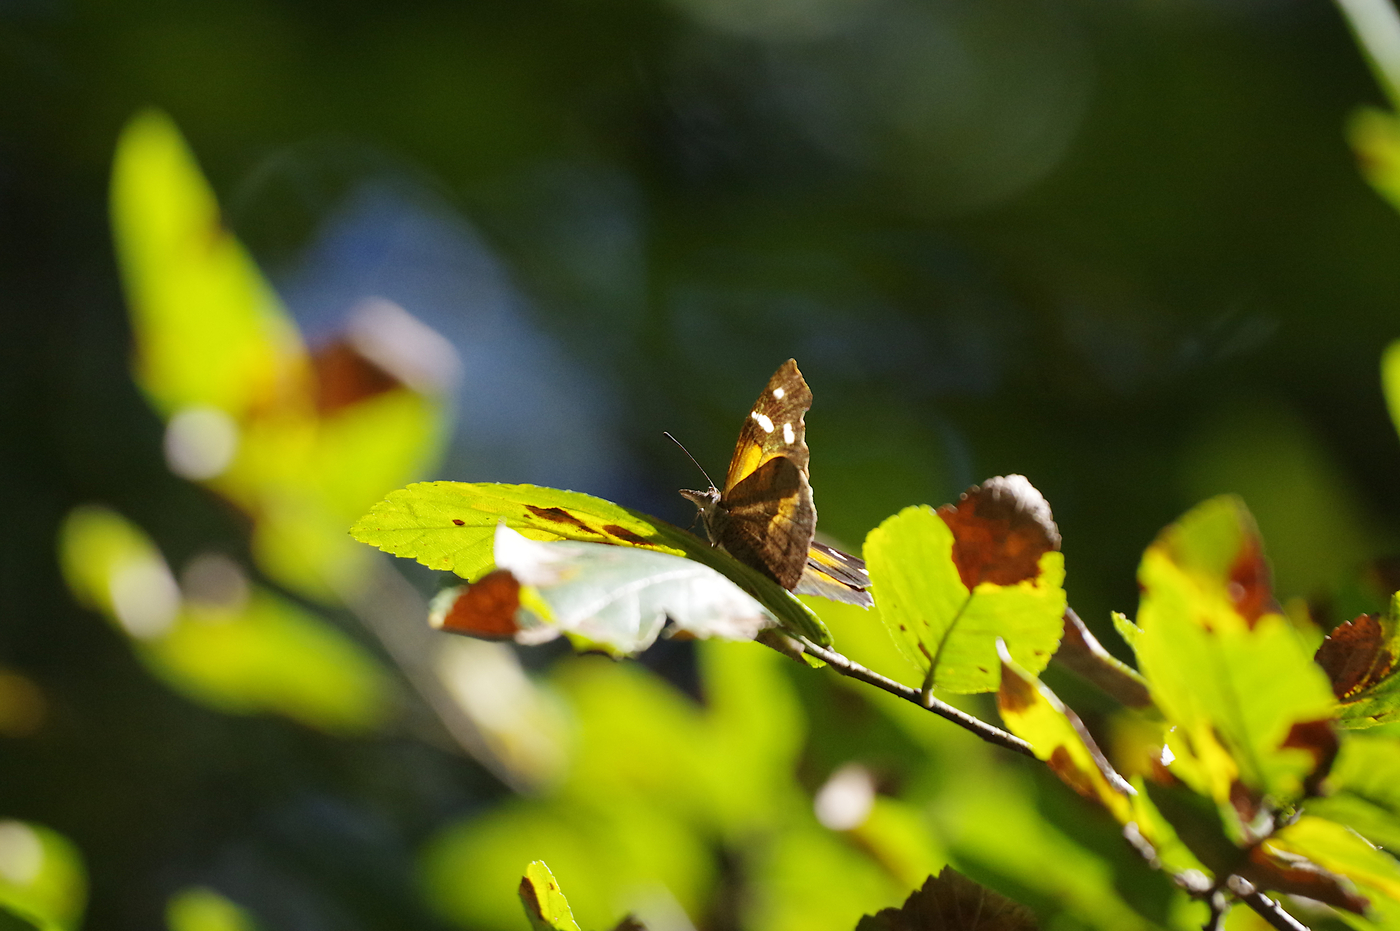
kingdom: Animalia
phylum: Arthropoda
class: Insecta
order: Lepidoptera
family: Nymphalidae
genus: Libytheana
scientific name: Libytheana carinenta
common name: American snout
